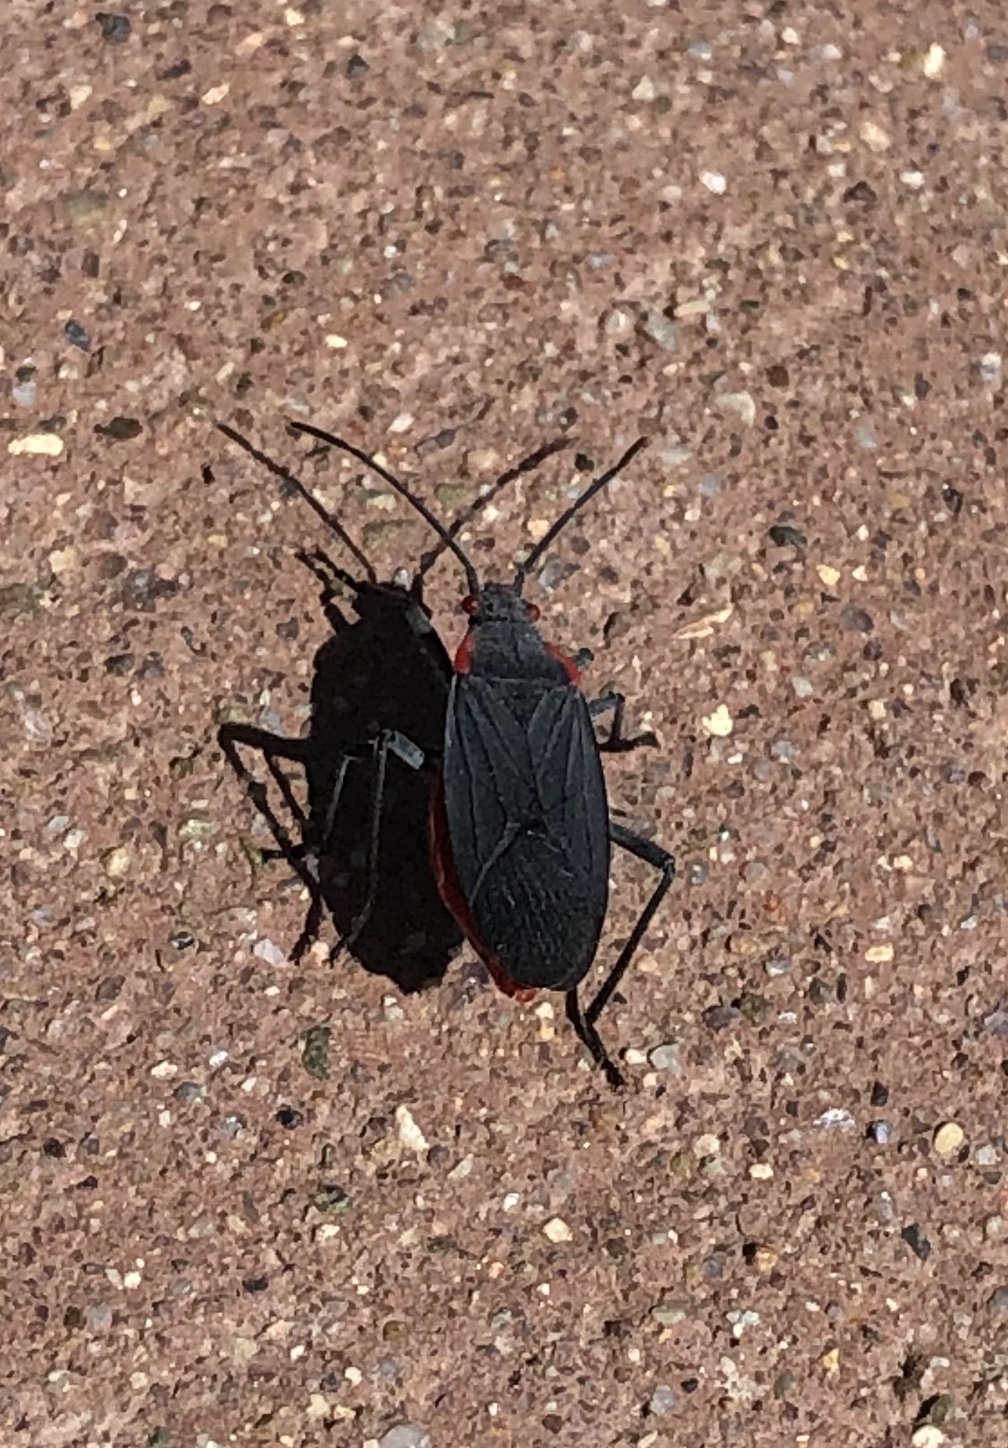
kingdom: Animalia
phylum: Arthropoda
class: Insecta
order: Hemiptera
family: Rhopalidae
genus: Jadera
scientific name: Jadera haematoloma
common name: Red-shouldered bug
